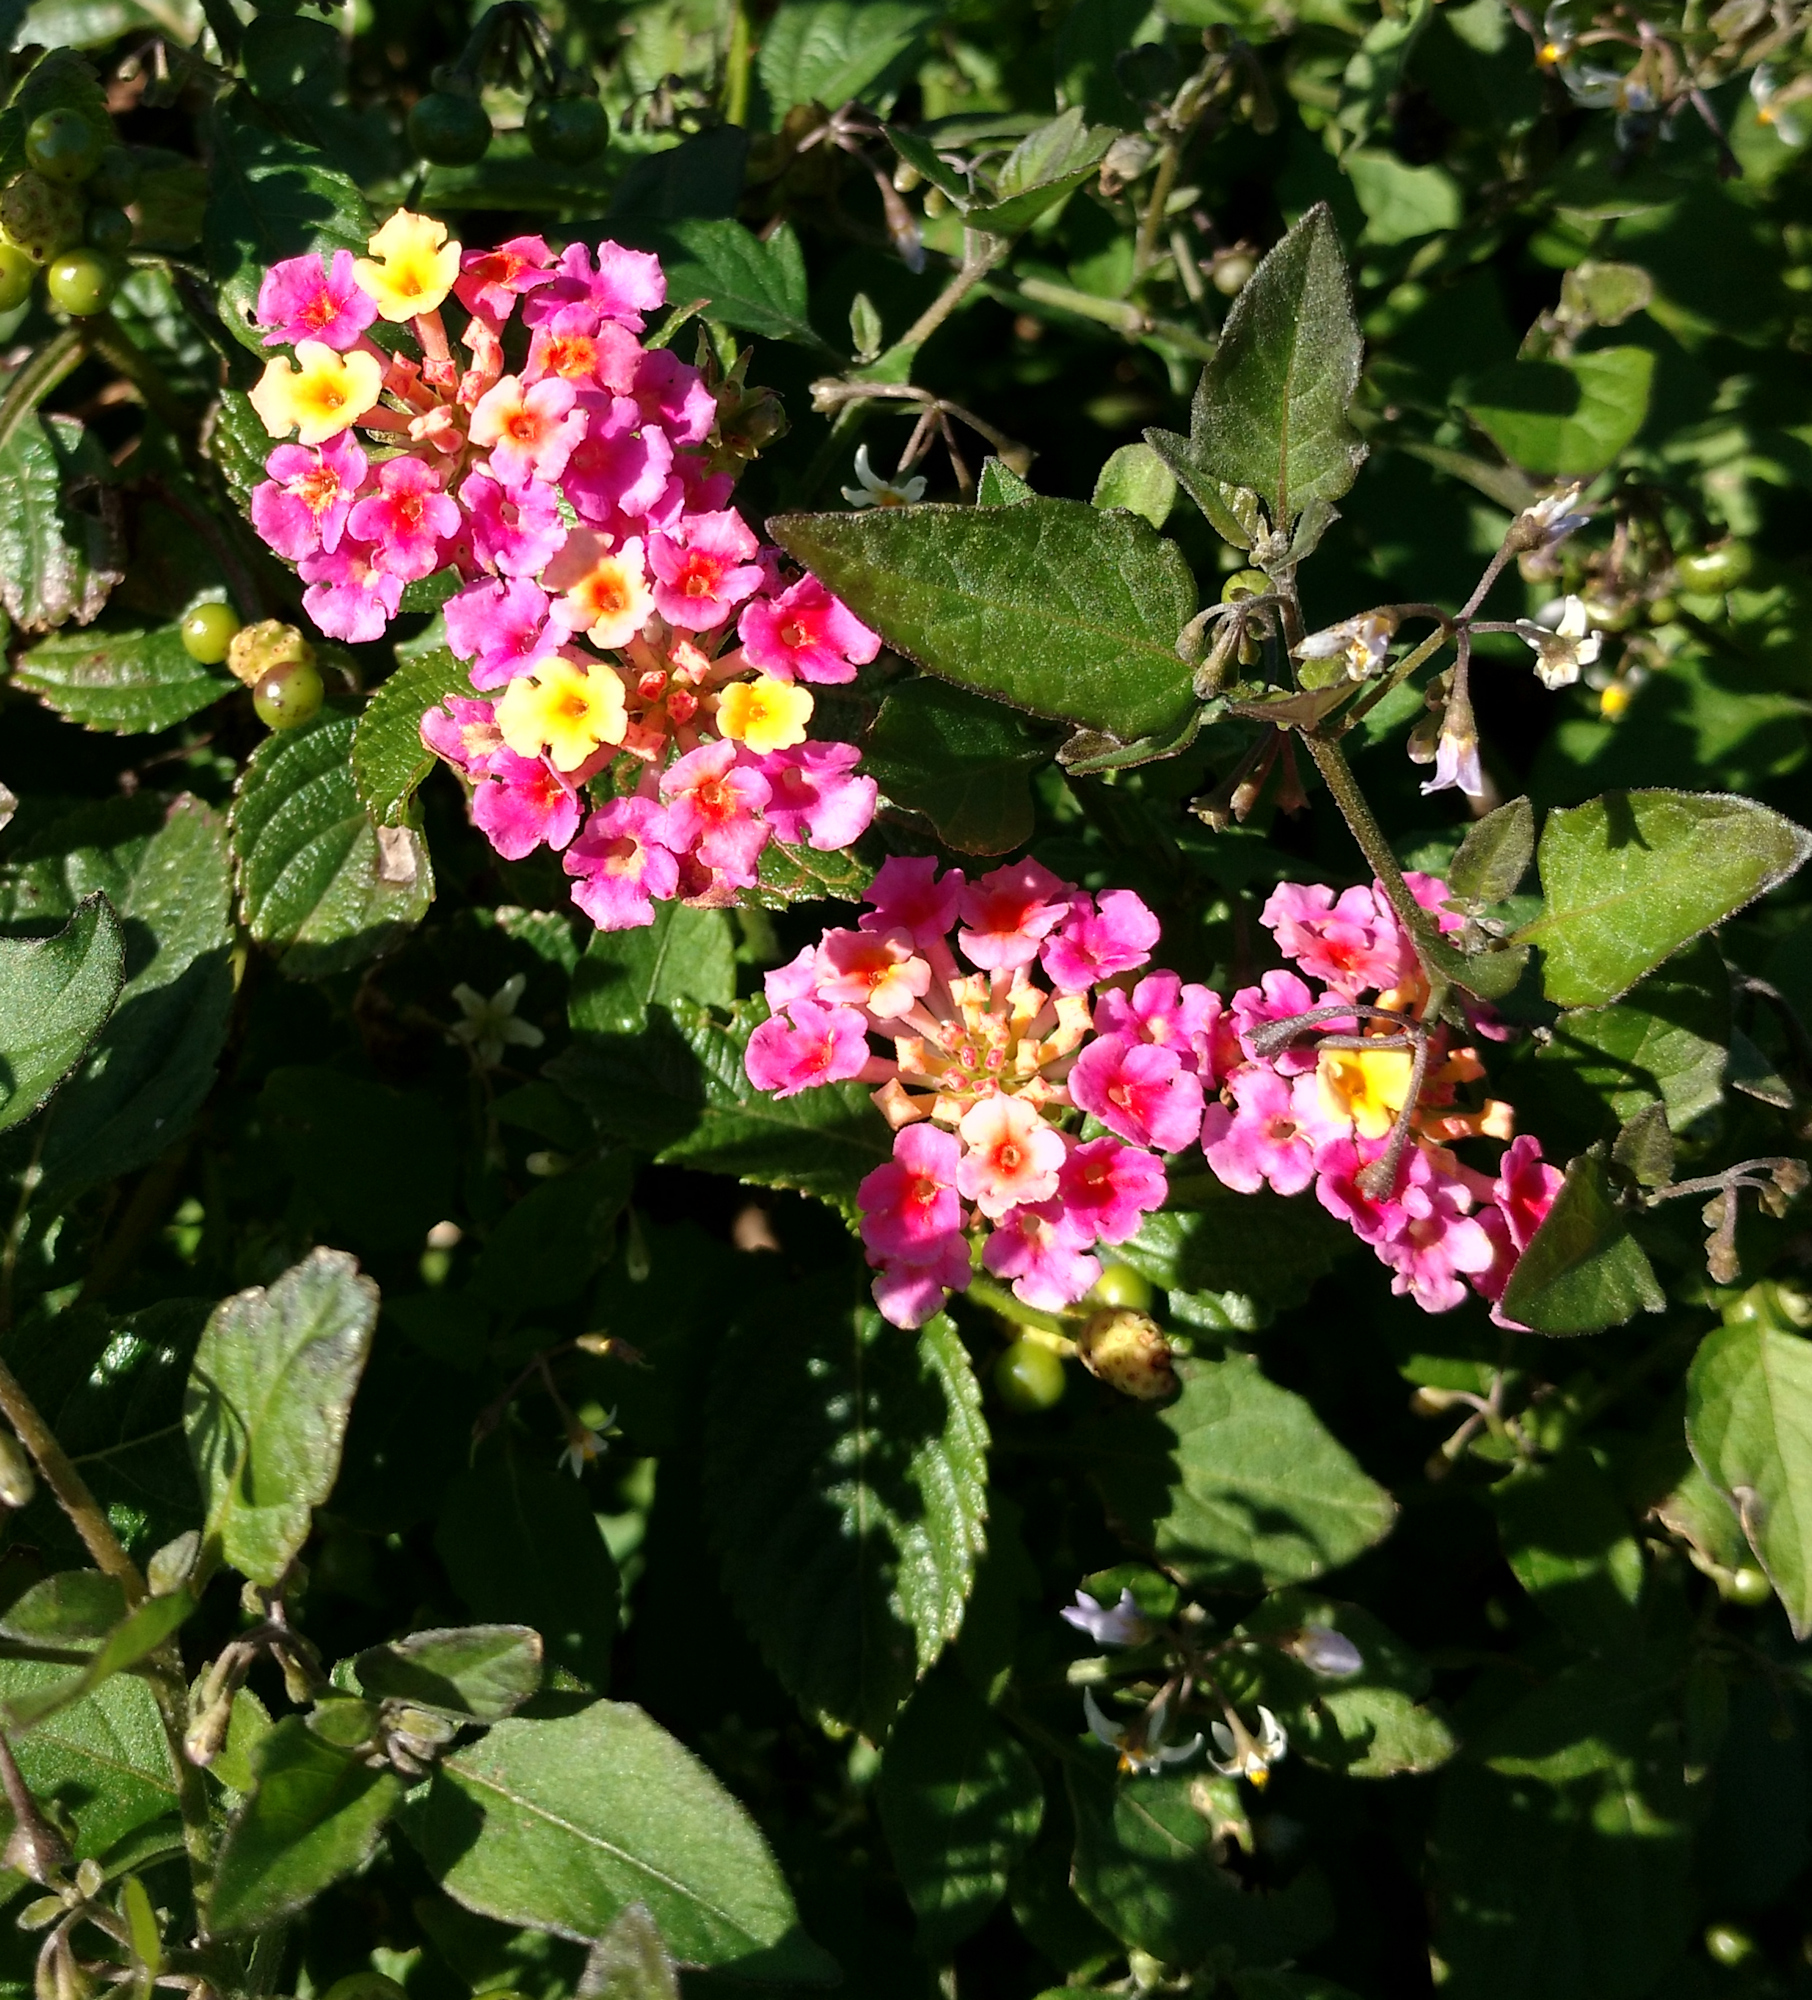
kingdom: Plantae
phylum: Tracheophyta
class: Magnoliopsida
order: Lamiales
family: Verbenaceae
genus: Lantana
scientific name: Lantana strigocamara
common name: Lantana
